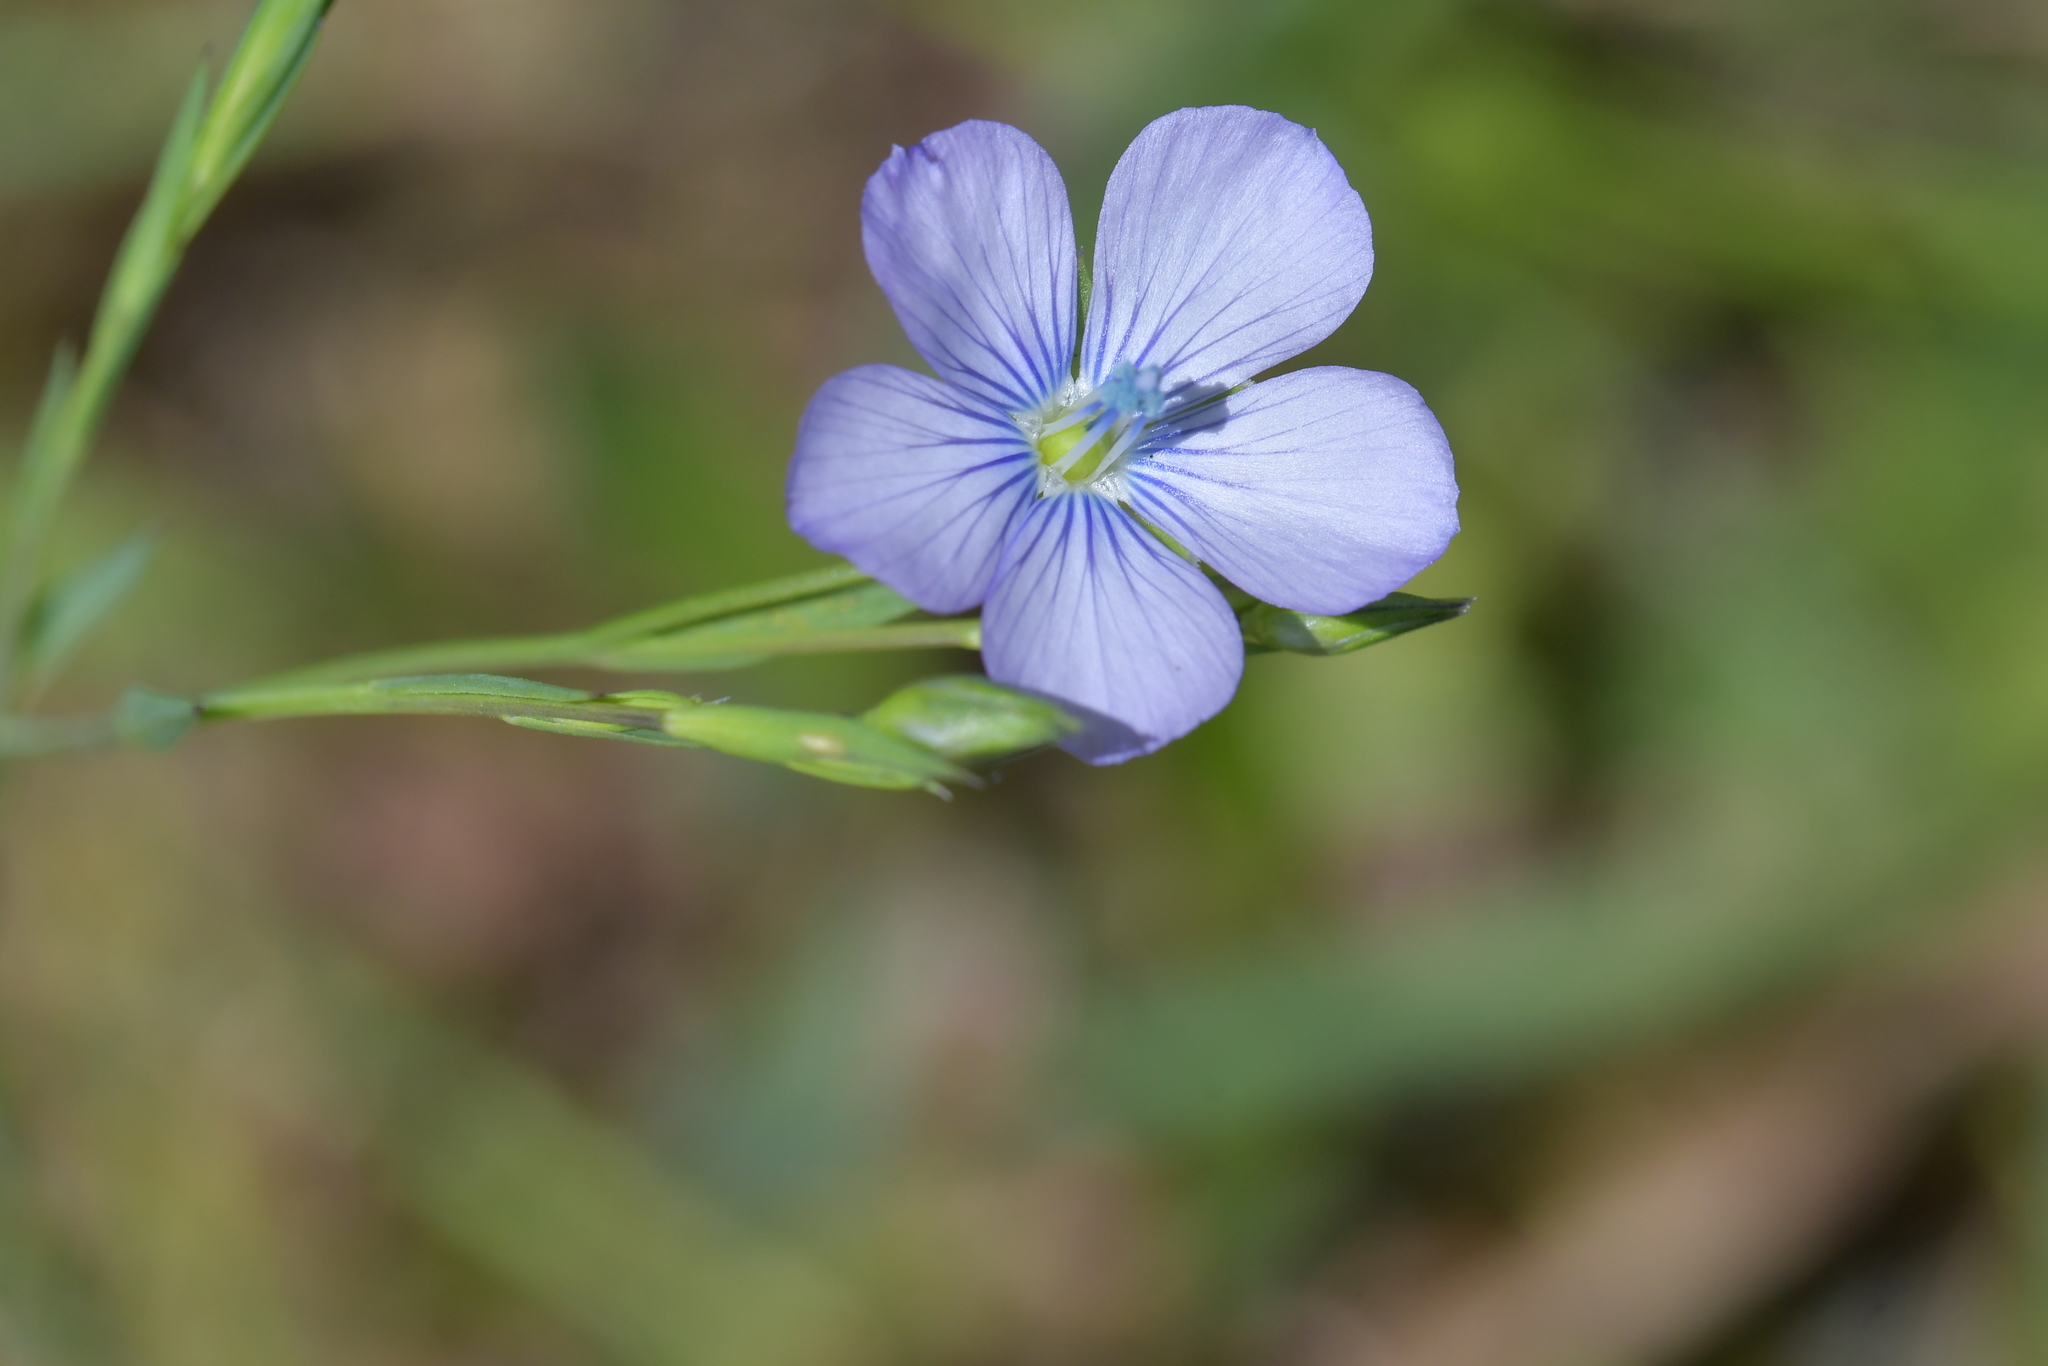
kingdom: Plantae
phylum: Tracheophyta
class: Magnoliopsida
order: Malpighiales
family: Linaceae
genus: Linum
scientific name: Linum bienne
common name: Pale flax
